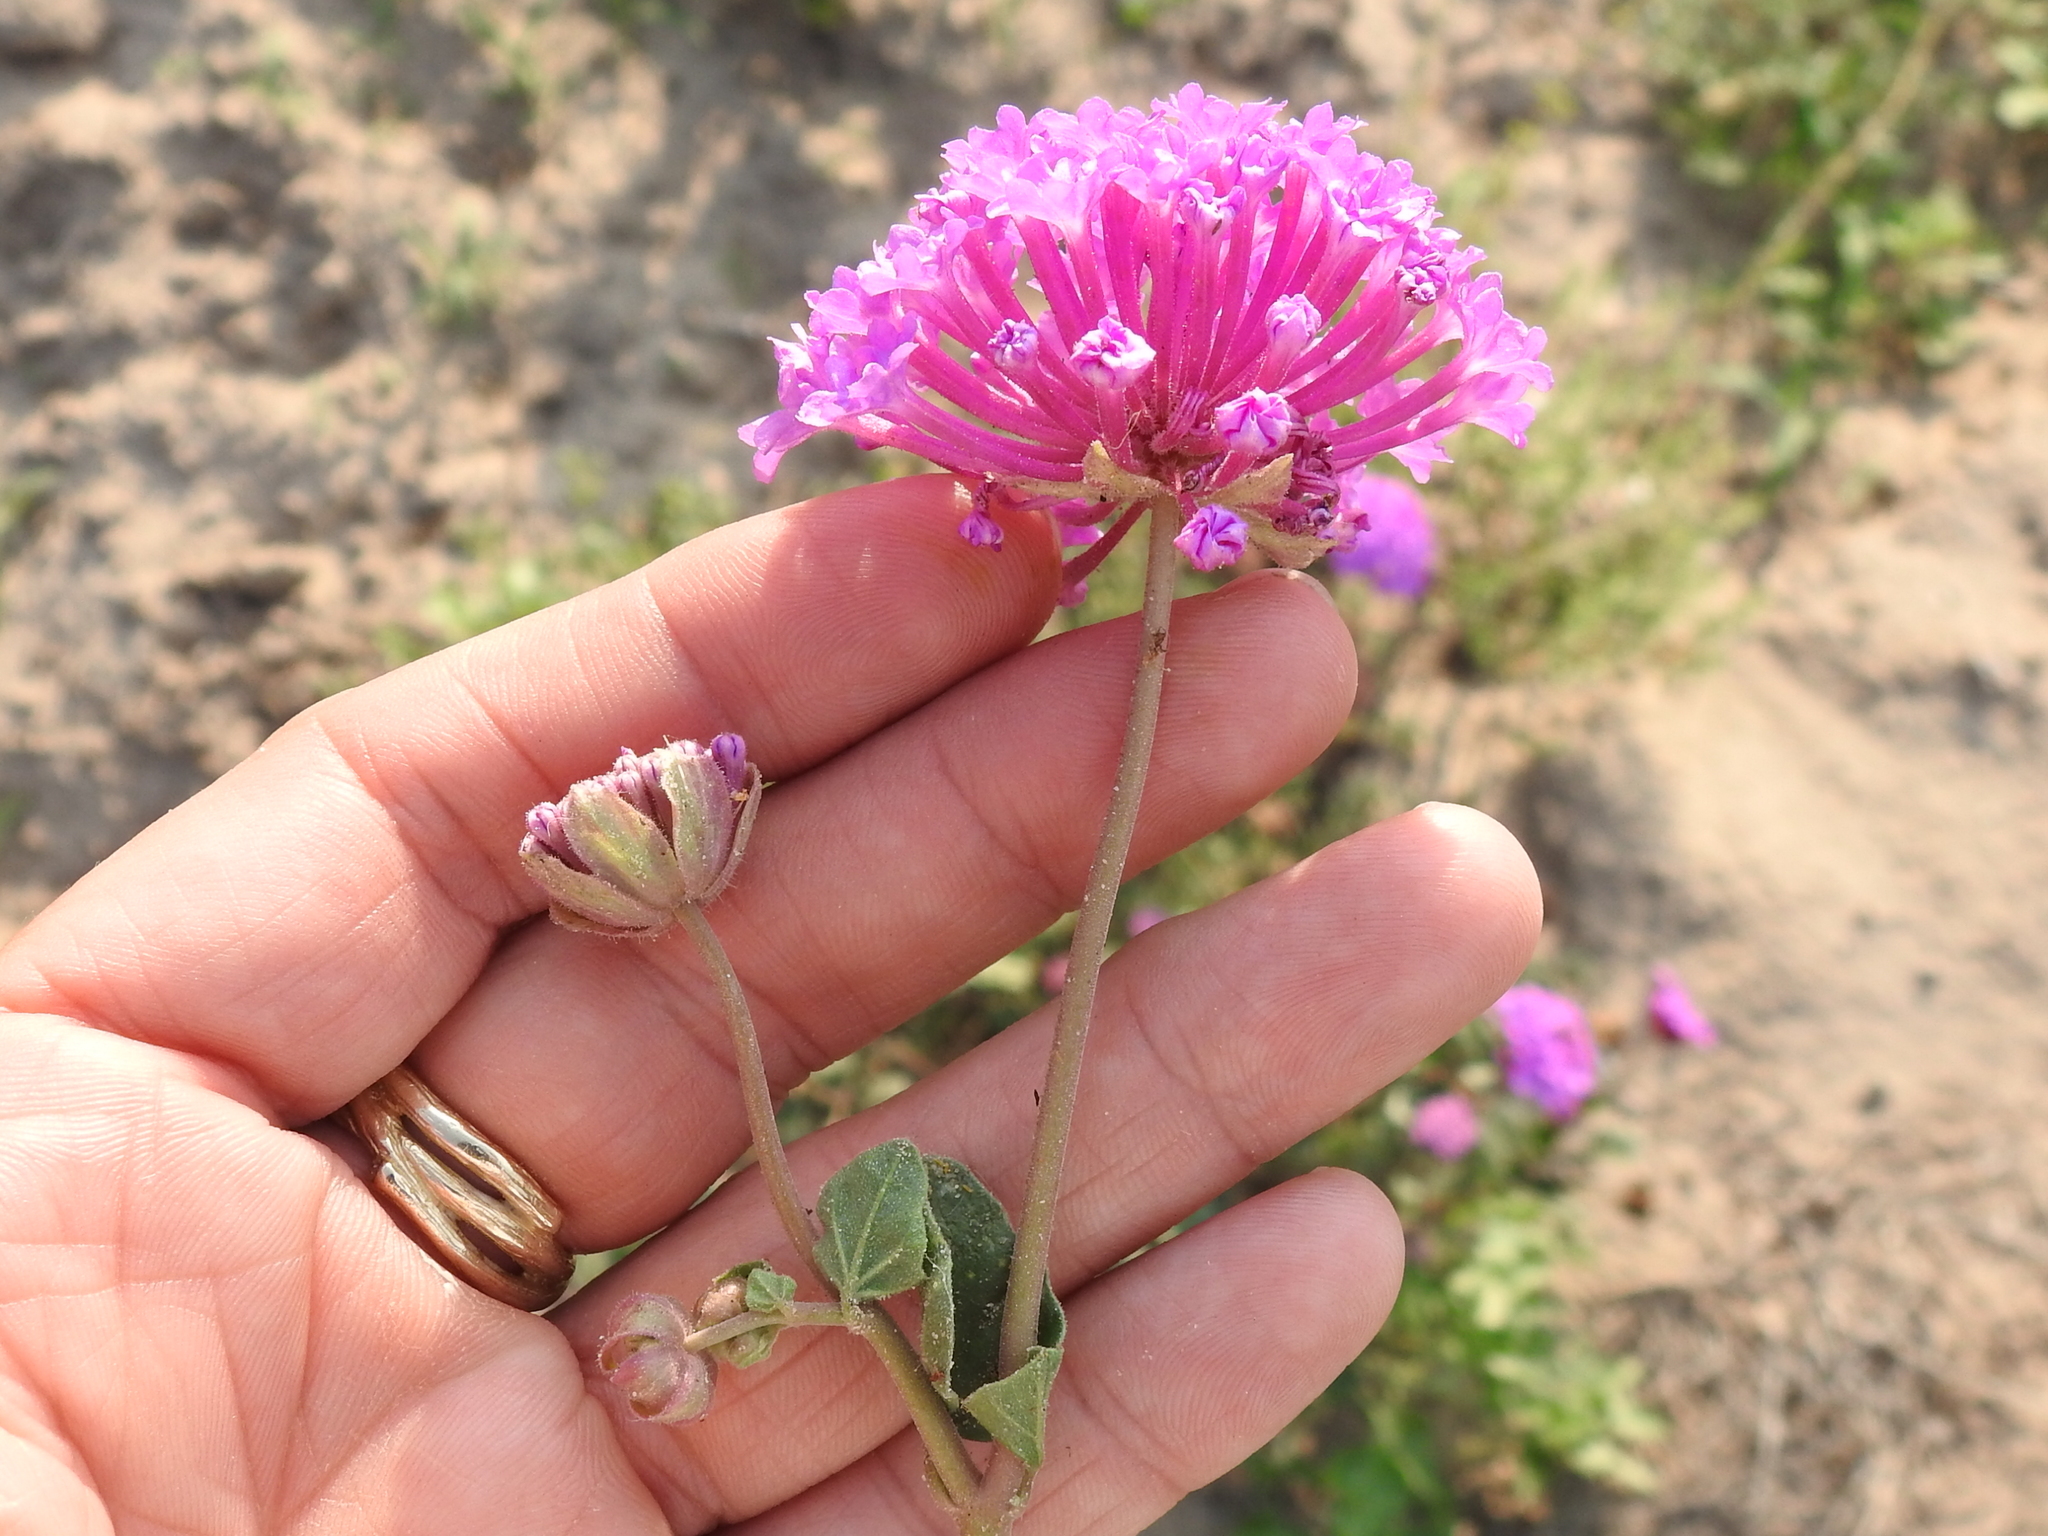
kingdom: Plantae
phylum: Tracheophyta
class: Magnoliopsida
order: Caryophyllales
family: Nyctaginaceae
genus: Abronia
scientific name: Abronia ameliae
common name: Amelia's sand-verbena
